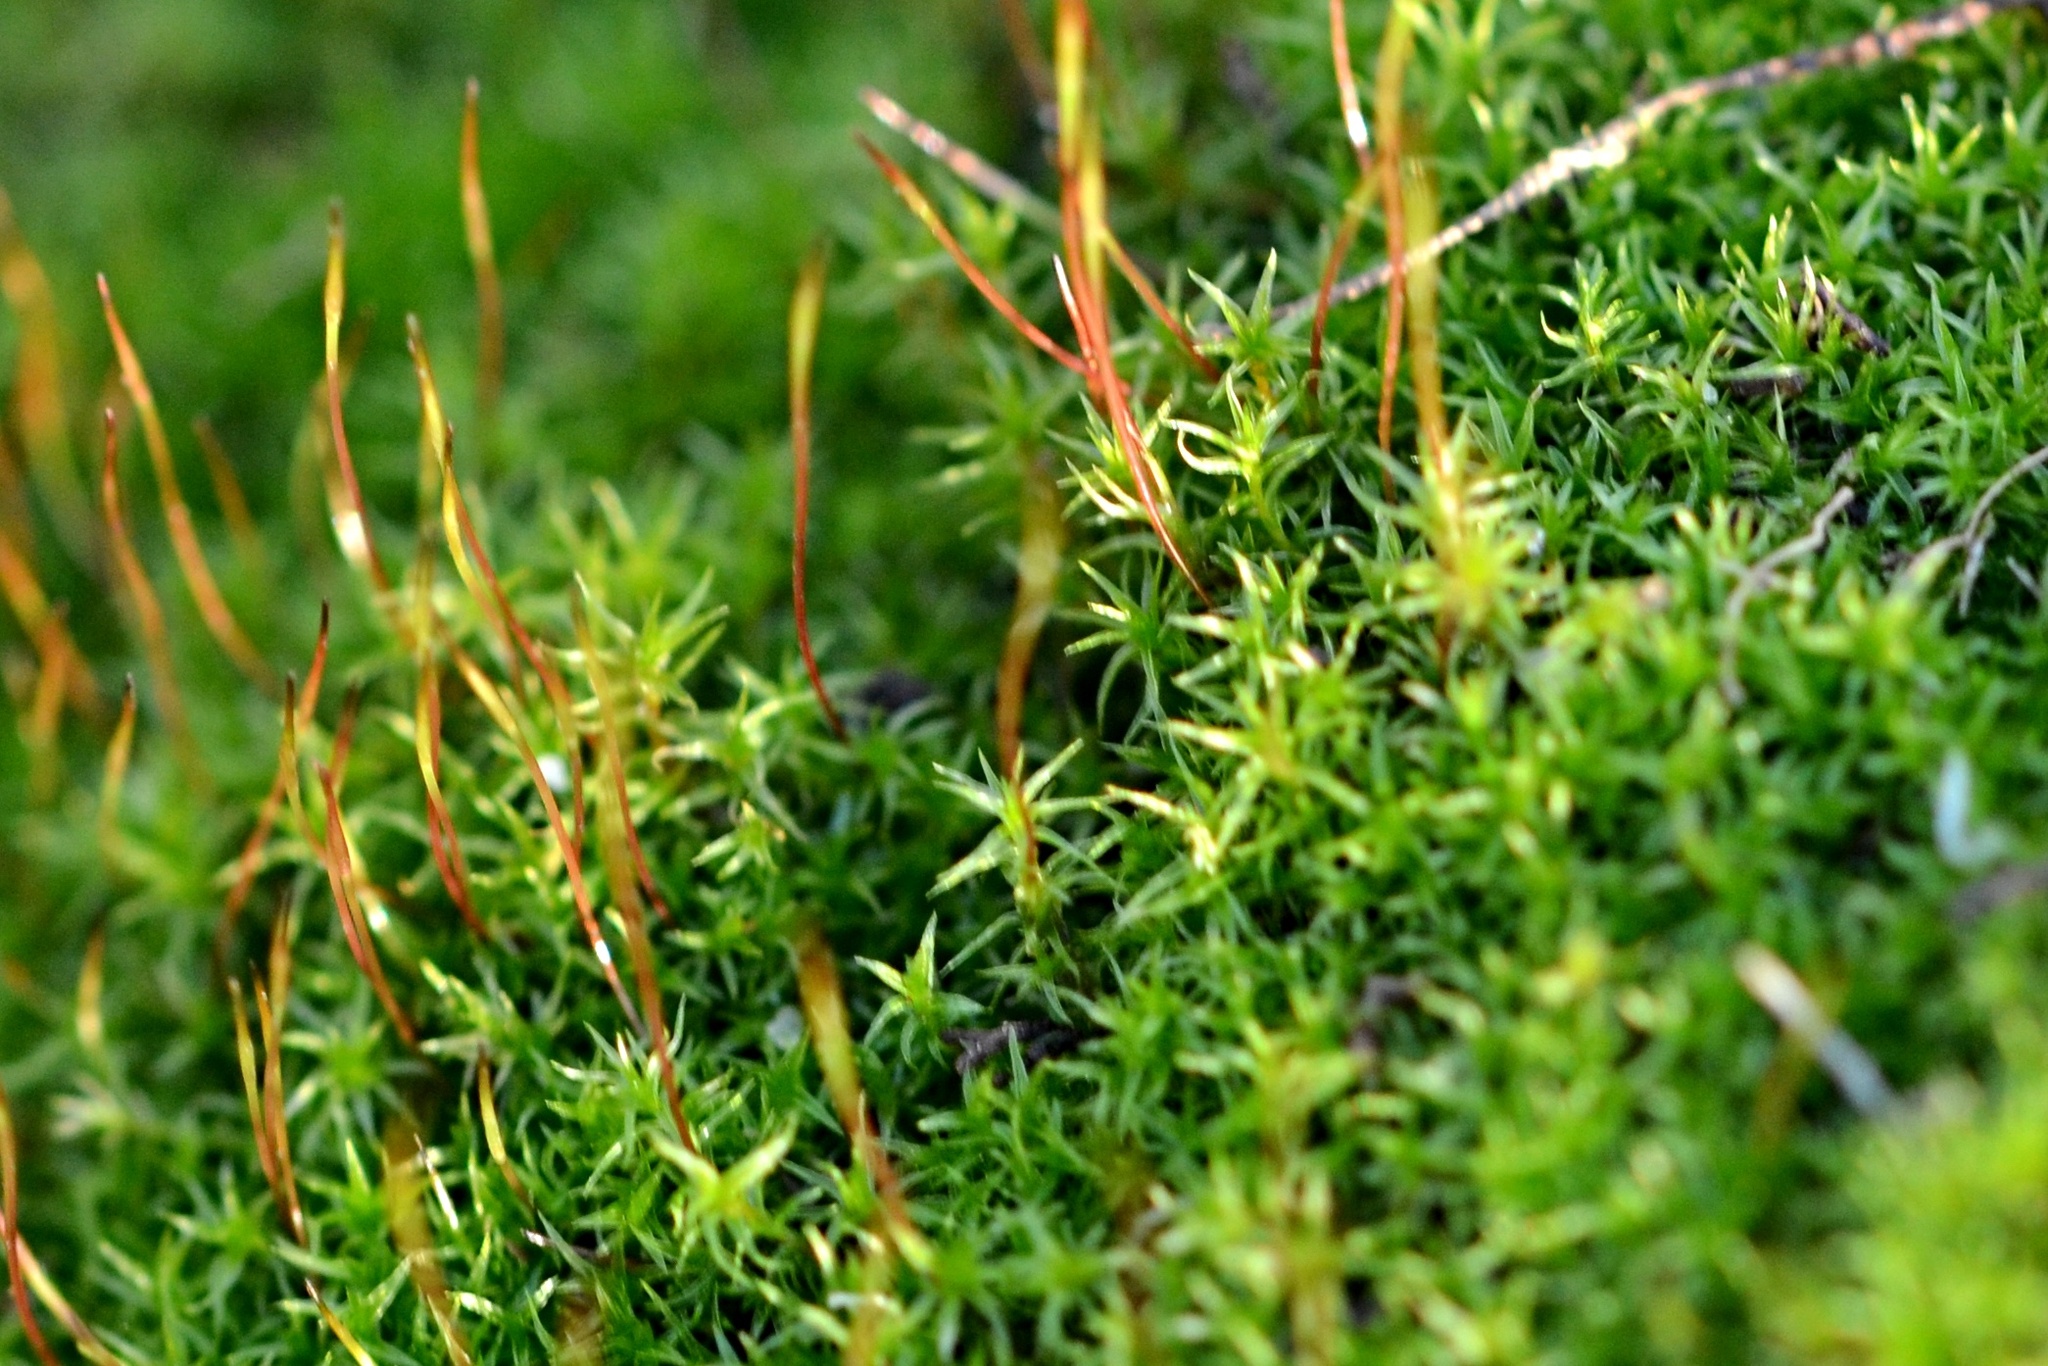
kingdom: Plantae
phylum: Bryophyta
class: Bryopsida
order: Dicranales
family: Ditrichaceae
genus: Ceratodon
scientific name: Ceratodon purpureus
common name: Redshank
